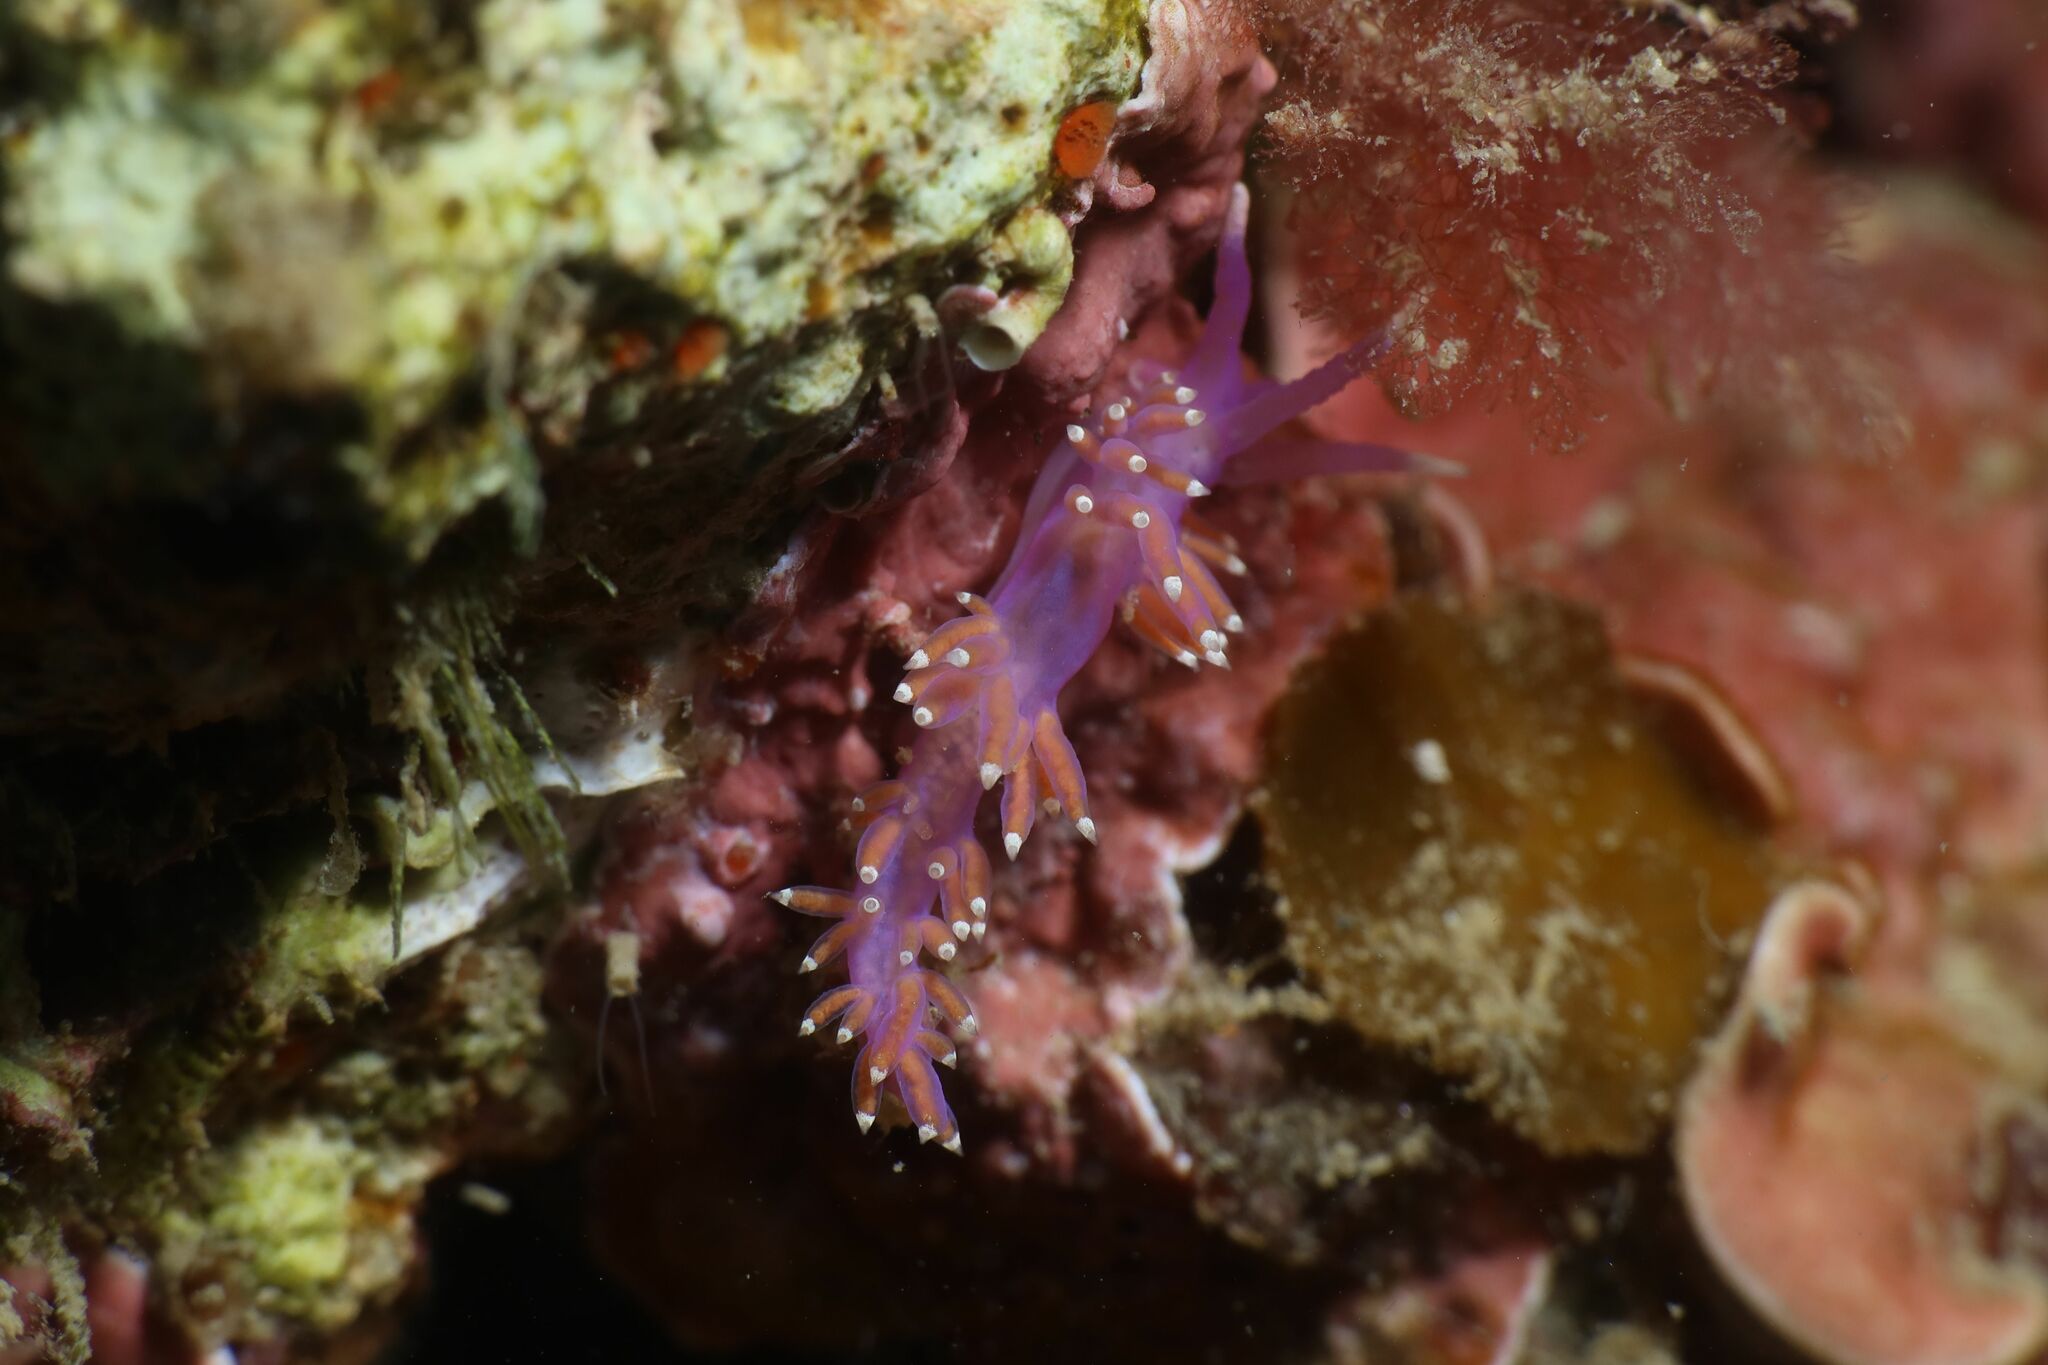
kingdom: Animalia
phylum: Mollusca
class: Gastropoda
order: Nudibranchia
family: Flabellinidae
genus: Edmundsella
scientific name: Edmundsella pedata
